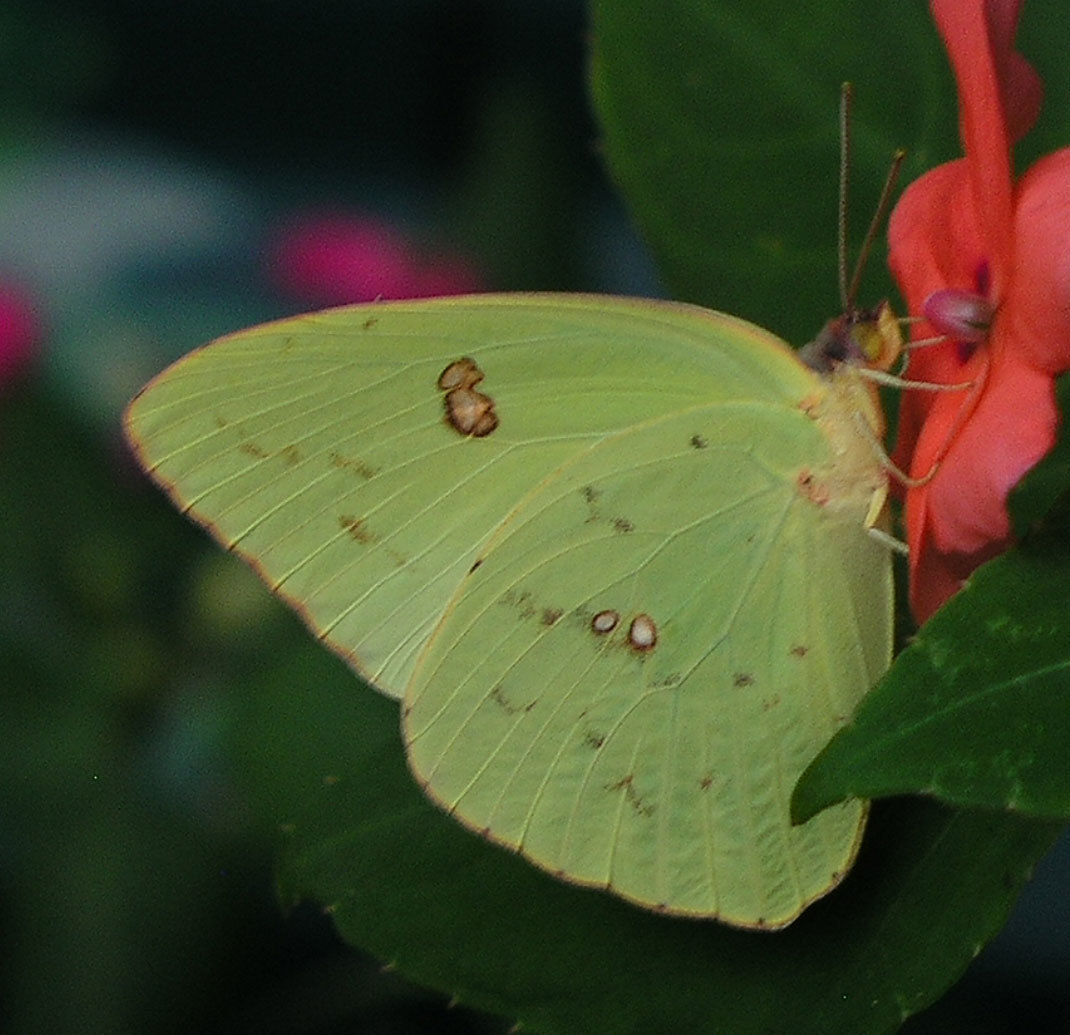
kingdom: Animalia
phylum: Arthropoda
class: Insecta
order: Lepidoptera
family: Pieridae
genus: Phoebis
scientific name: Phoebis sennae
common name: Cloudless sulphur
